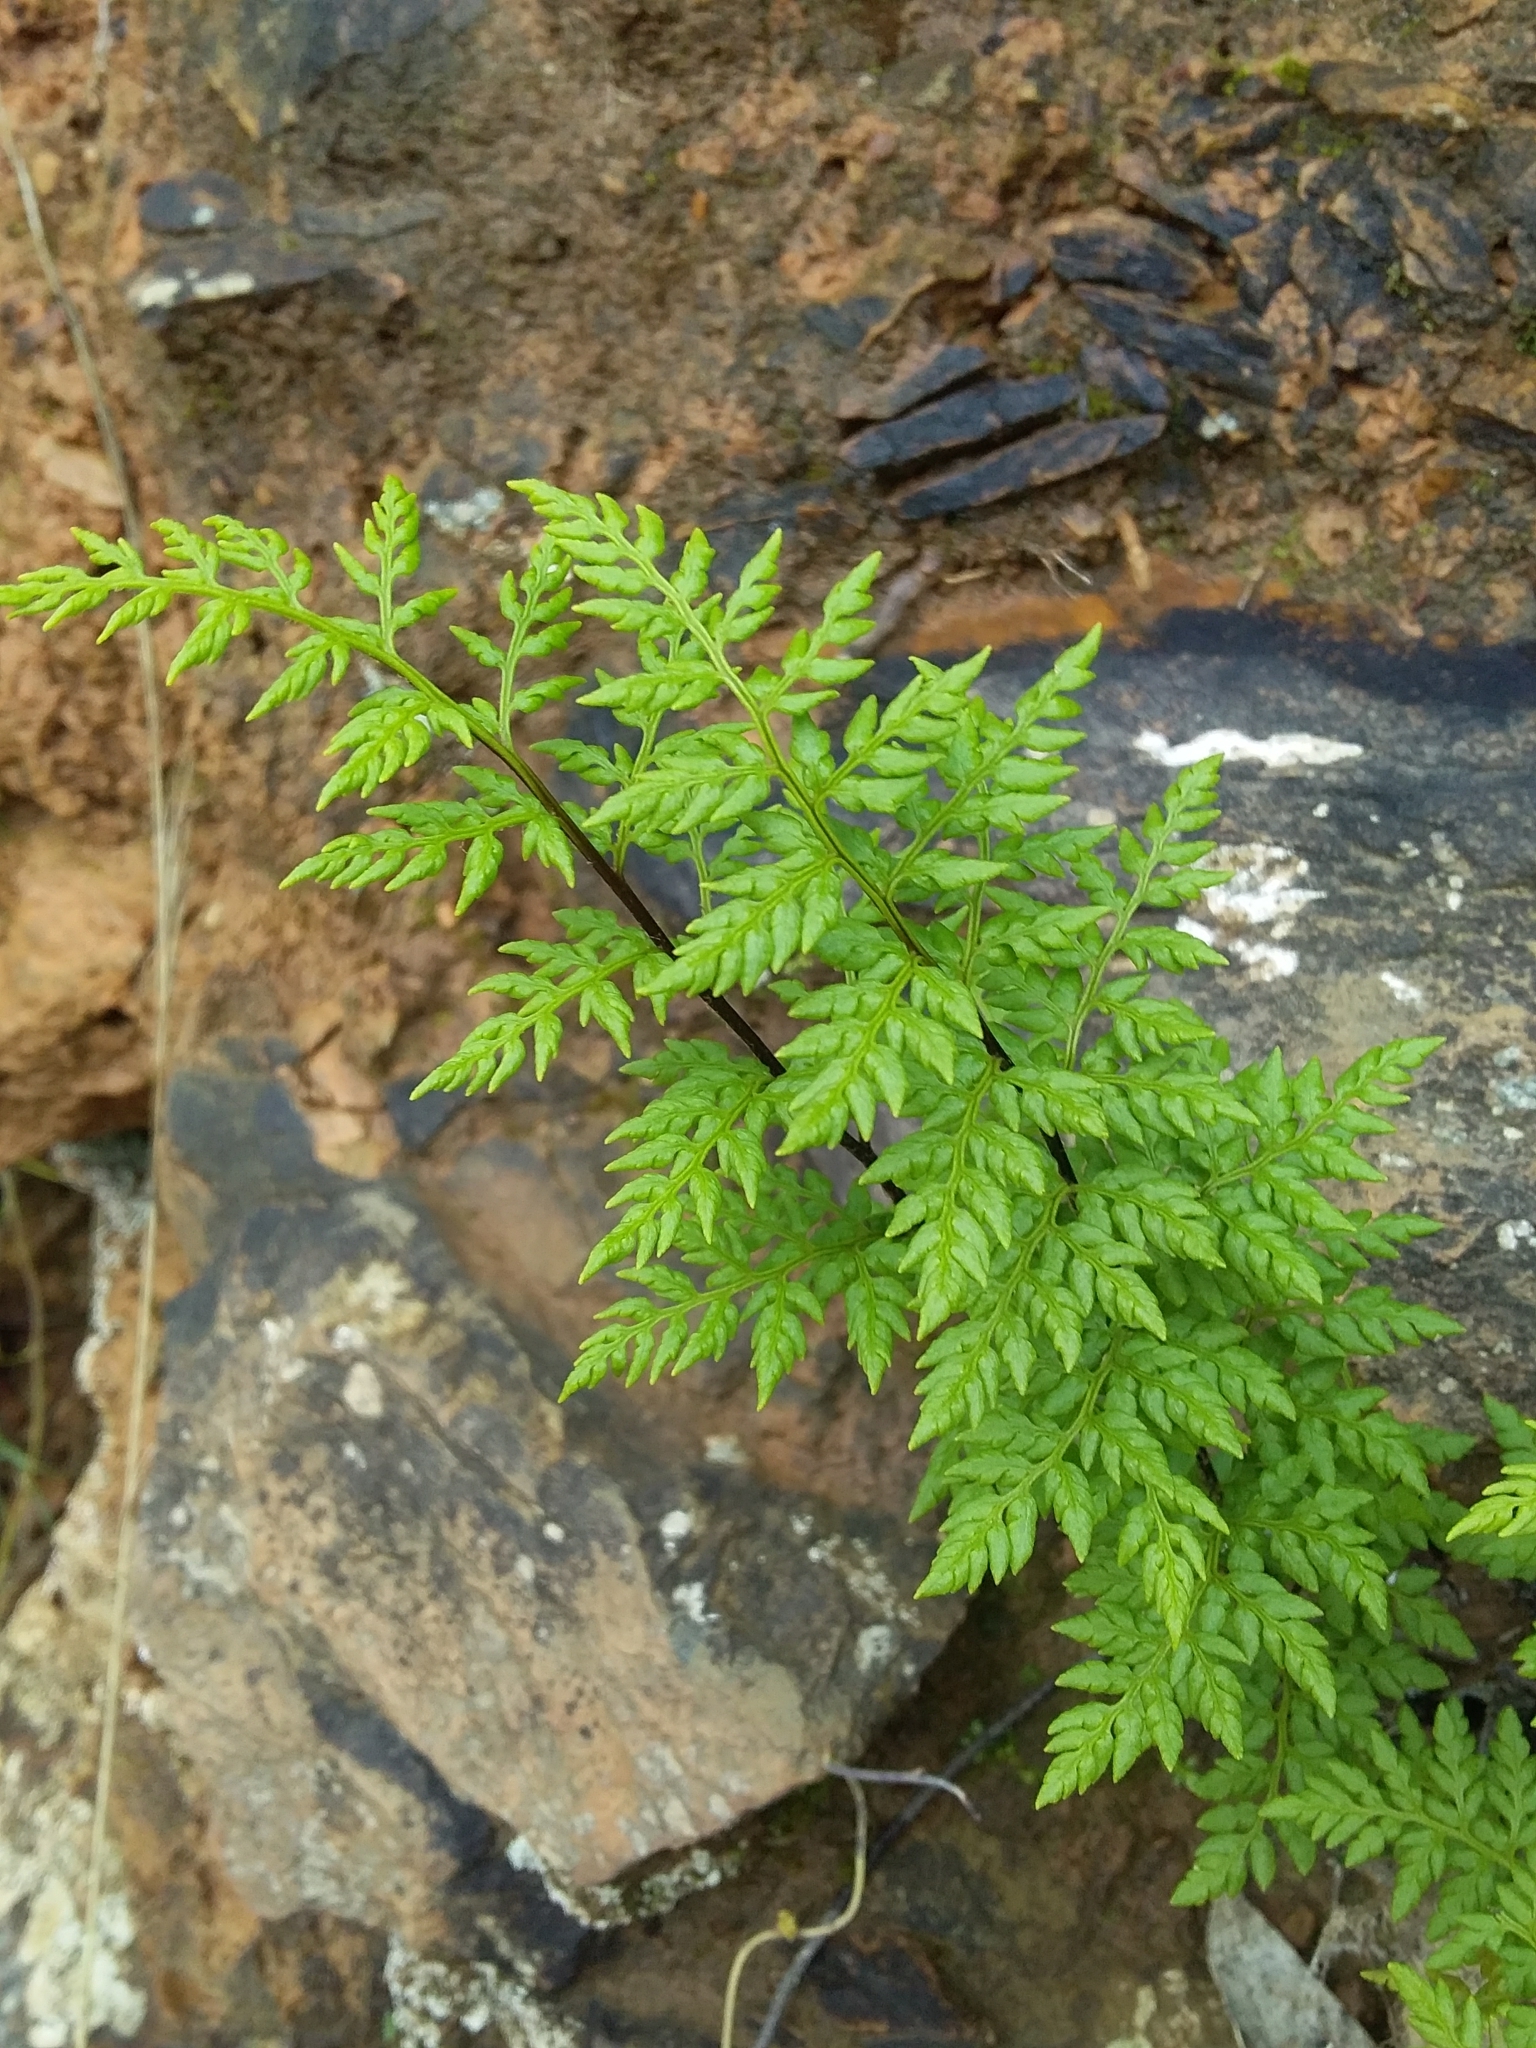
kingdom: Plantae
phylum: Tracheophyta
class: Polypodiopsida
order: Polypodiales
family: Pteridaceae
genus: Cheilanthes
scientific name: Cheilanthes austrotenuifolia
